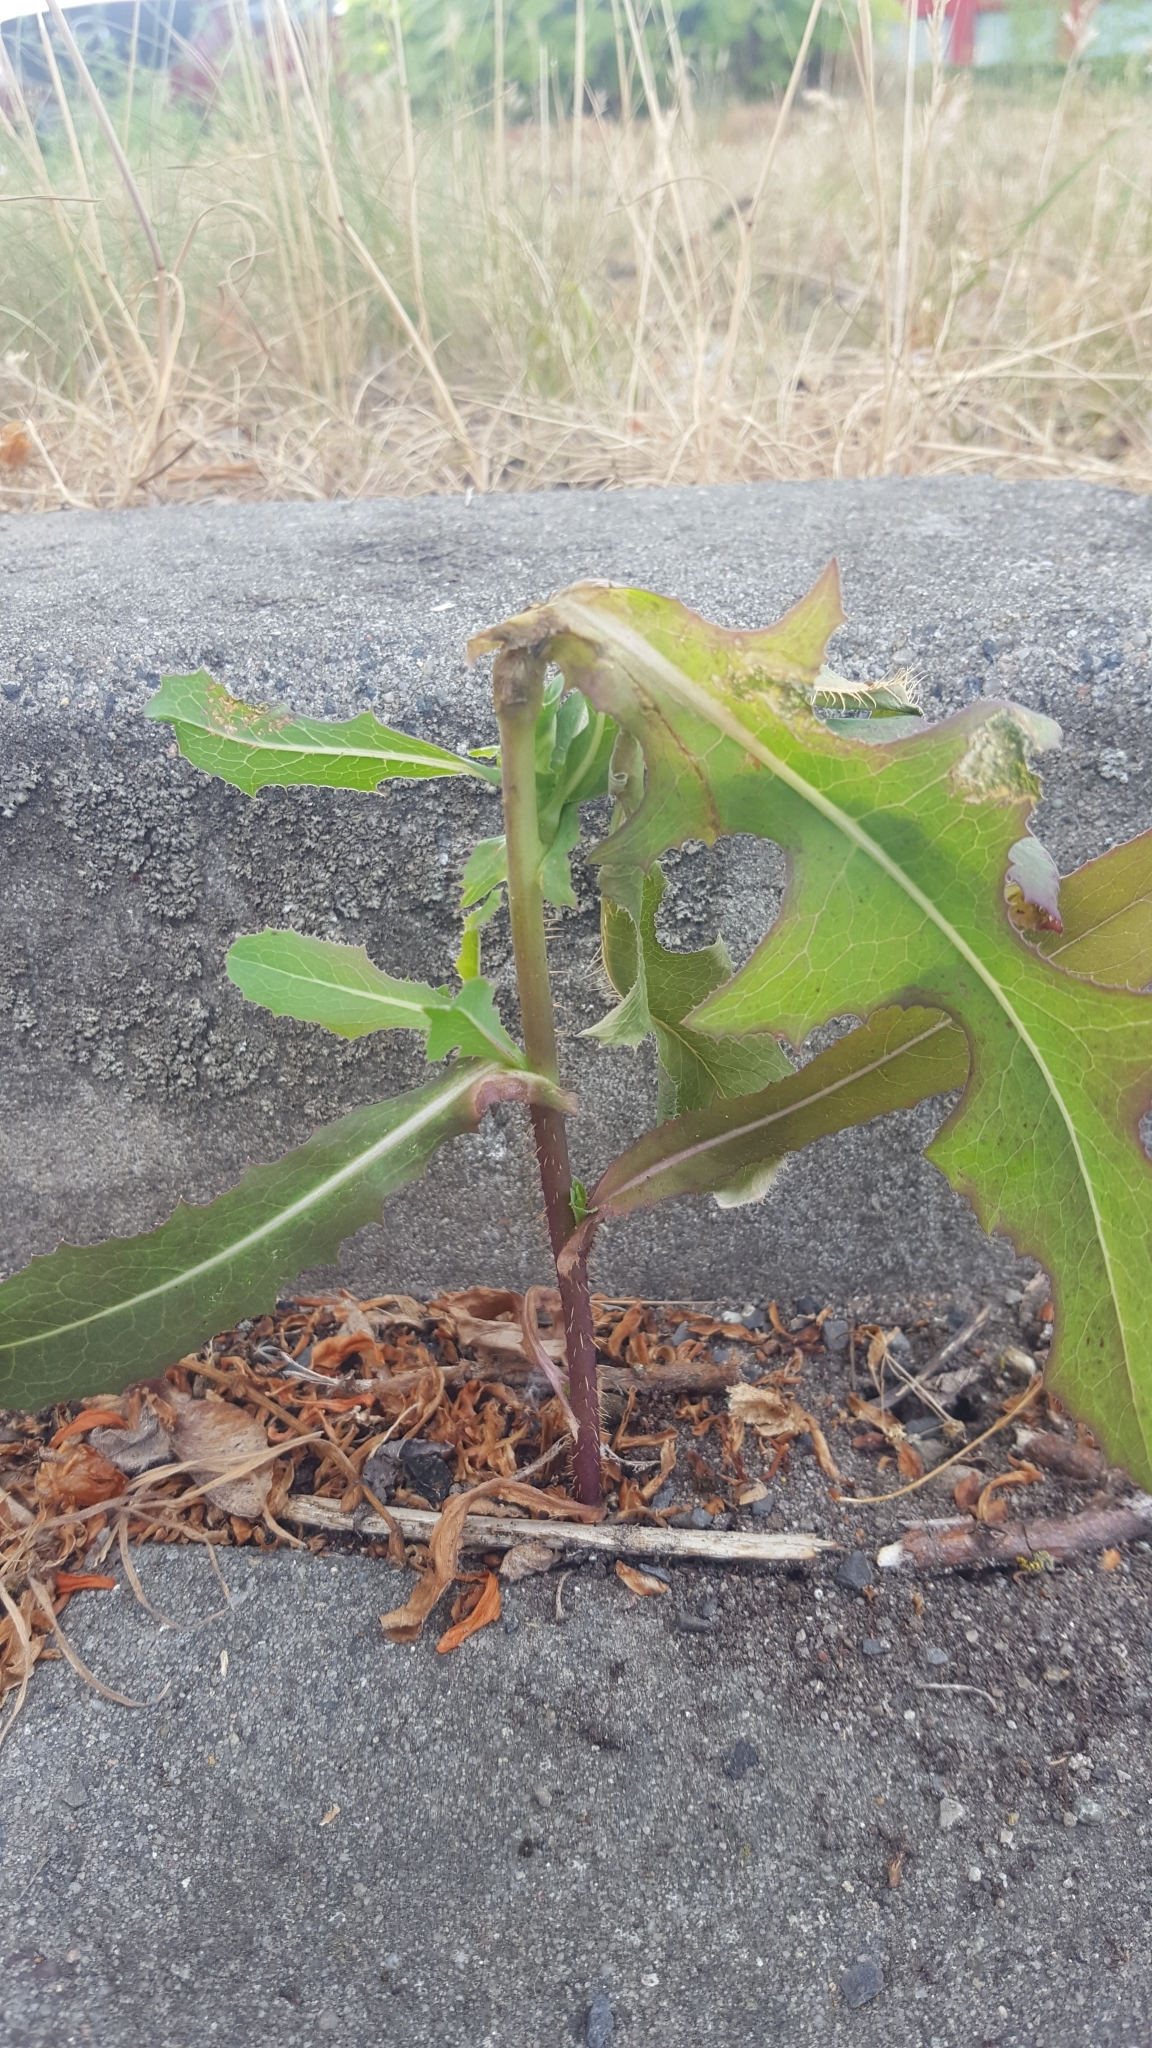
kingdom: Plantae
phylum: Tracheophyta
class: Magnoliopsida
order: Asterales
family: Asteraceae
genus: Lactuca
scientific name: Lactuca serriola
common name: Prickly lettuce
